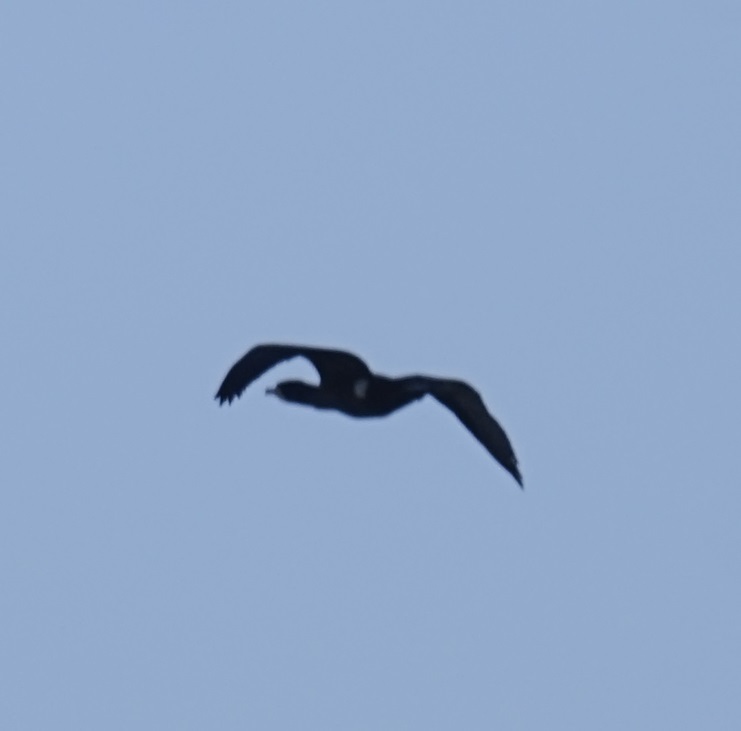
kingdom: Animalia
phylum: Chordata
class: Aves
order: Suliformes
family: Phalacrocoracidae
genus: Phalacrocorax
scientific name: Phalacrocorax carbo
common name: Great cormorant
